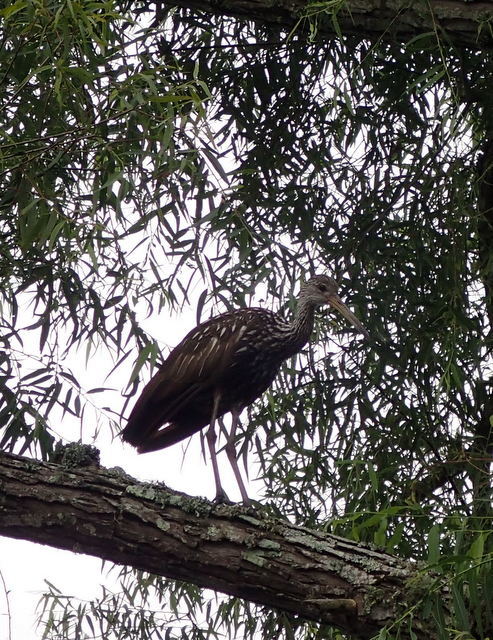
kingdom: Animalia
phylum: Chordata
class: Aves
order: Gruiformes
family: Aramidae
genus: Aramus
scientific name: Aramus guarauna
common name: Limpkin
